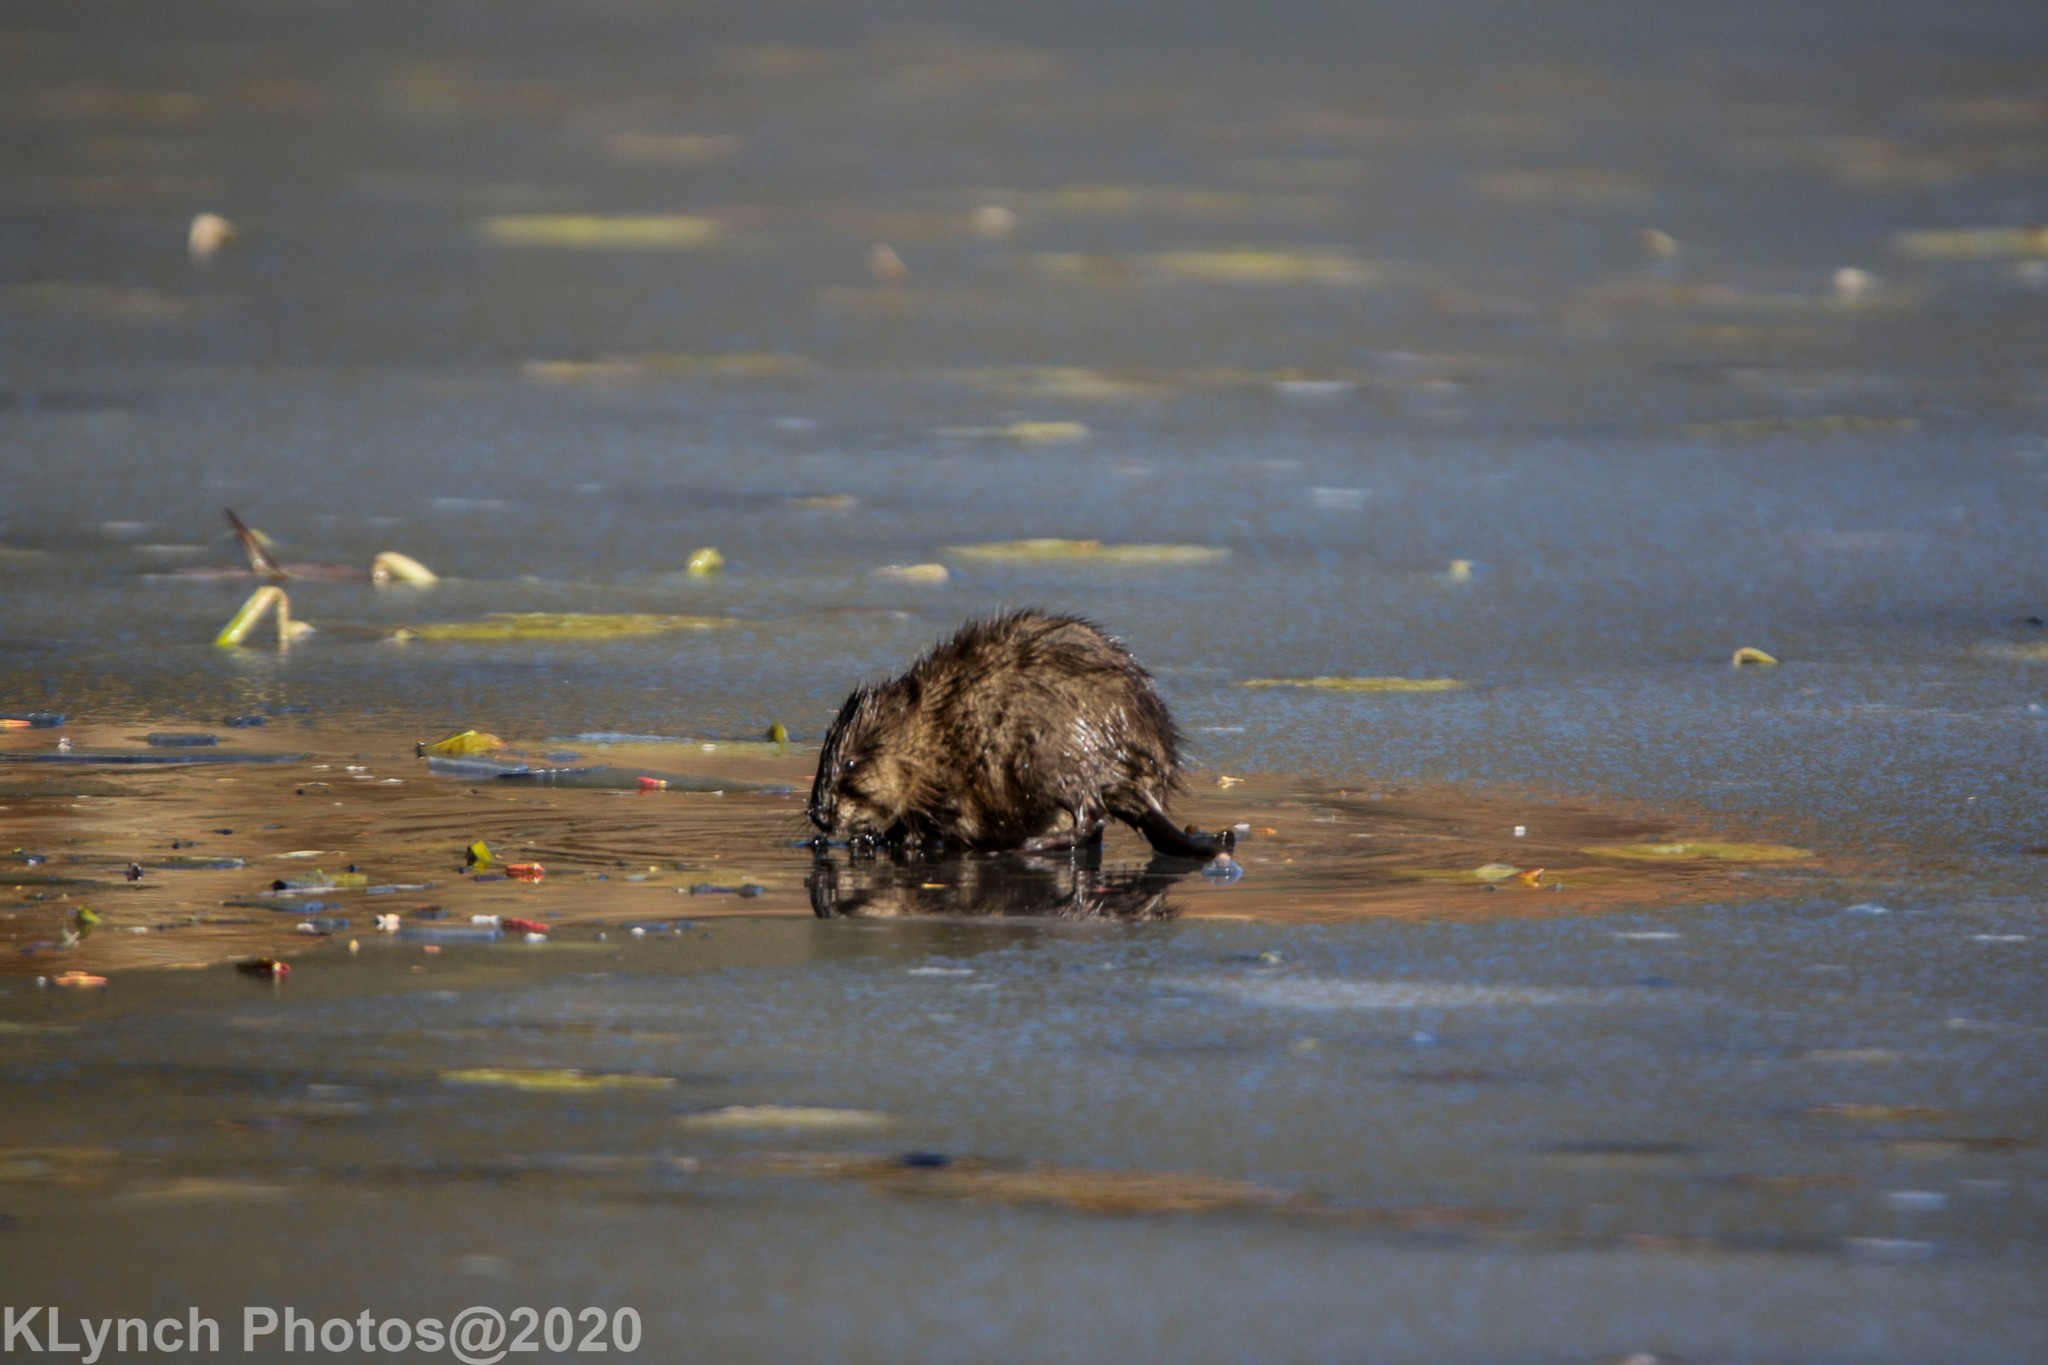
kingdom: Animalia
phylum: Chordata
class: Mammalia
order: Rodentia
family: Cricetidae
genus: Ondatra
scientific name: Ondatra zibethicus
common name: Muskrat
